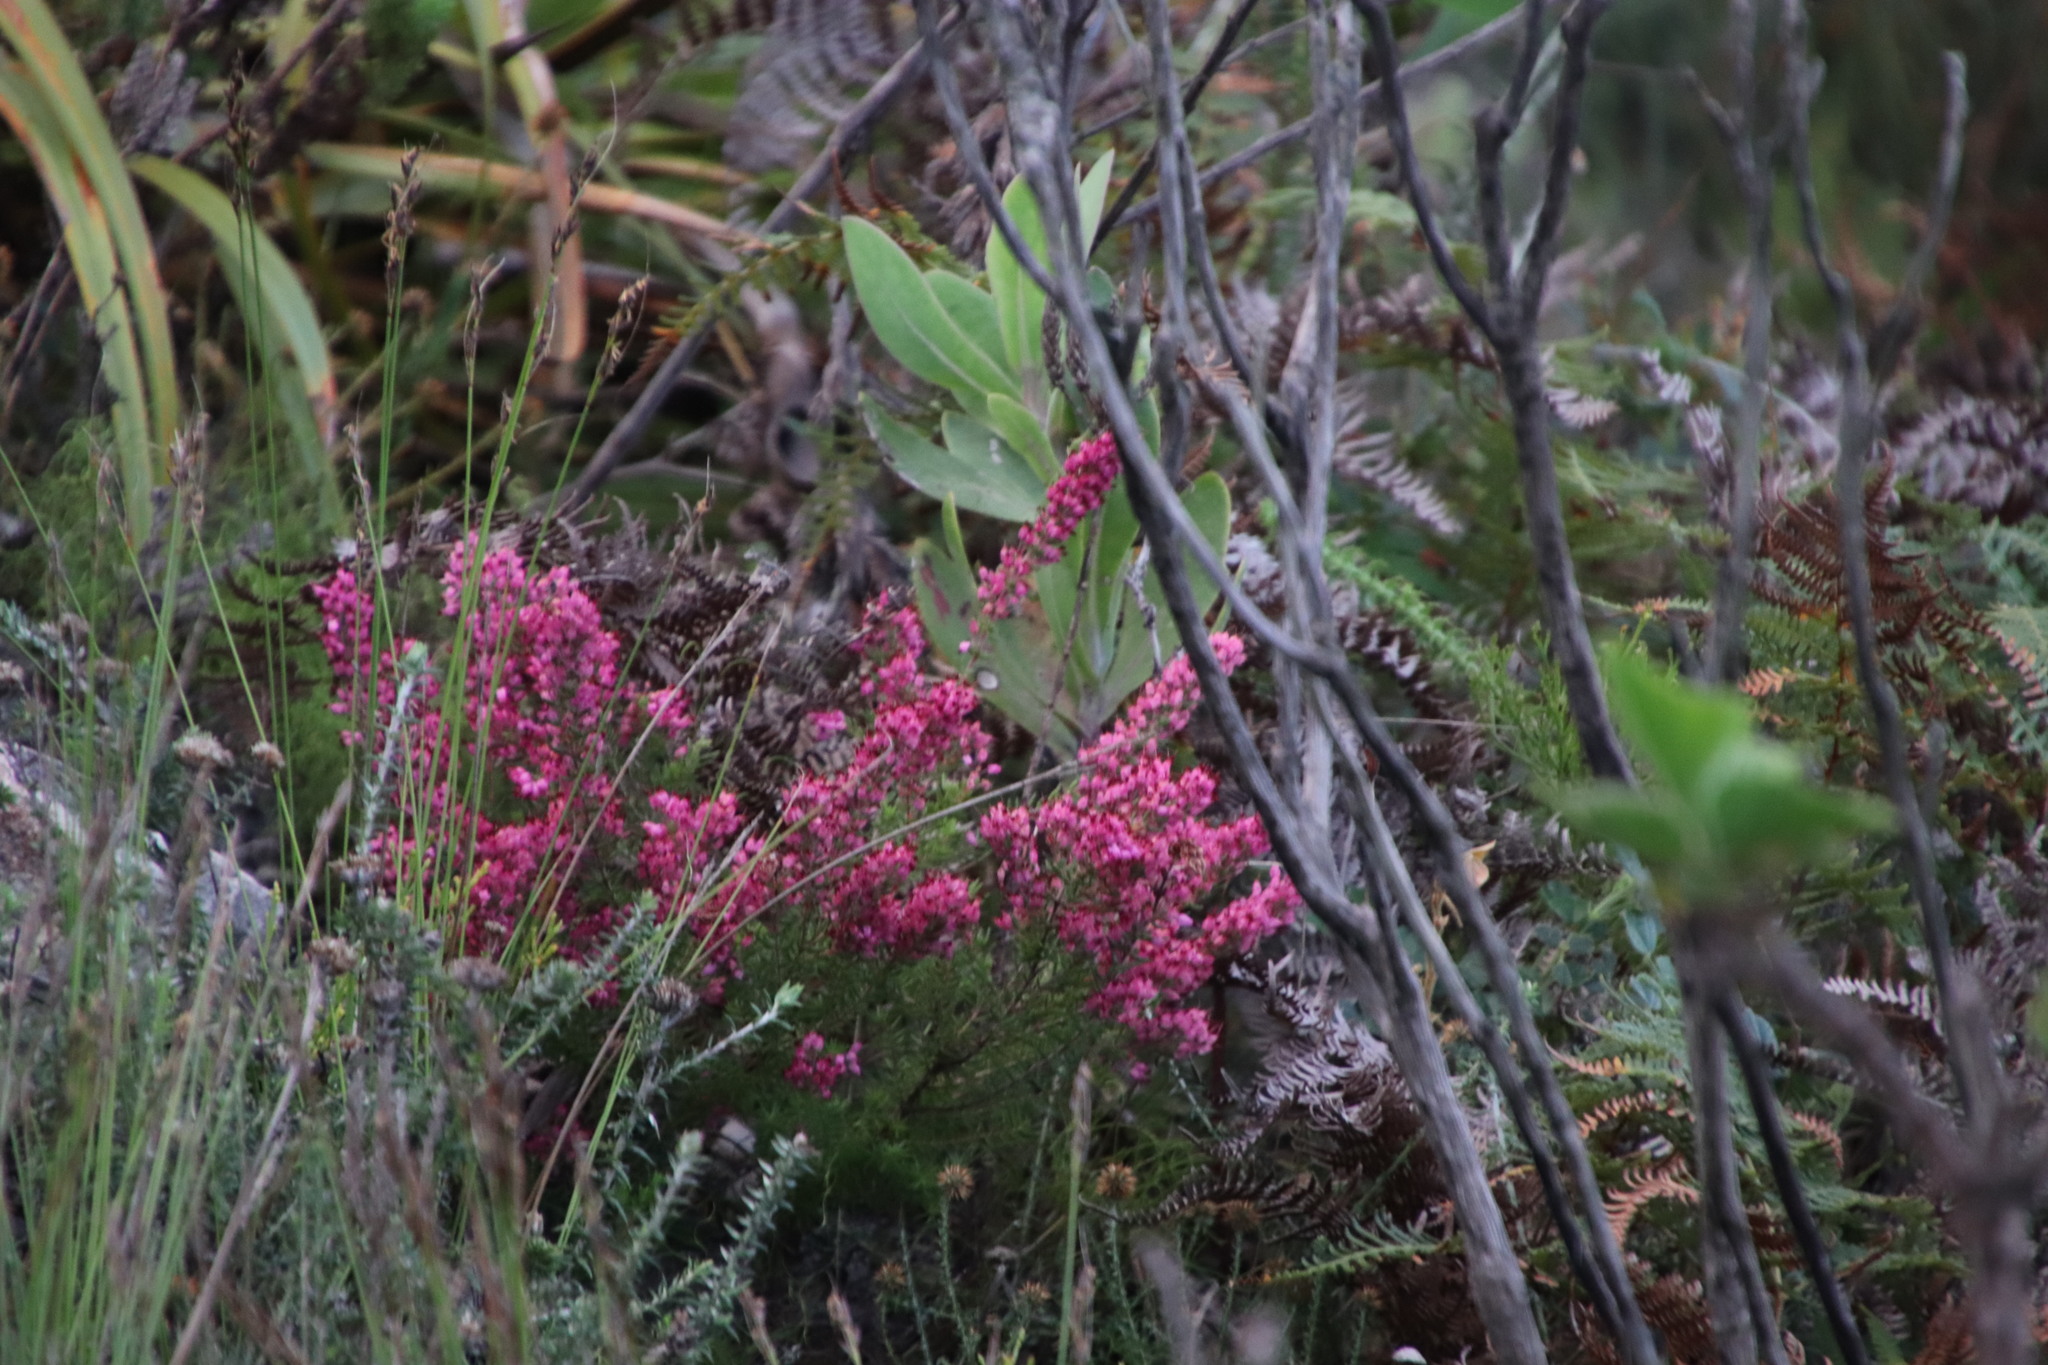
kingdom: Plantae
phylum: Tracheophyta
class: Magnoliopsida
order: Ericales
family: Ericaceae
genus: Erica
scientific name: Erica nudiflora
